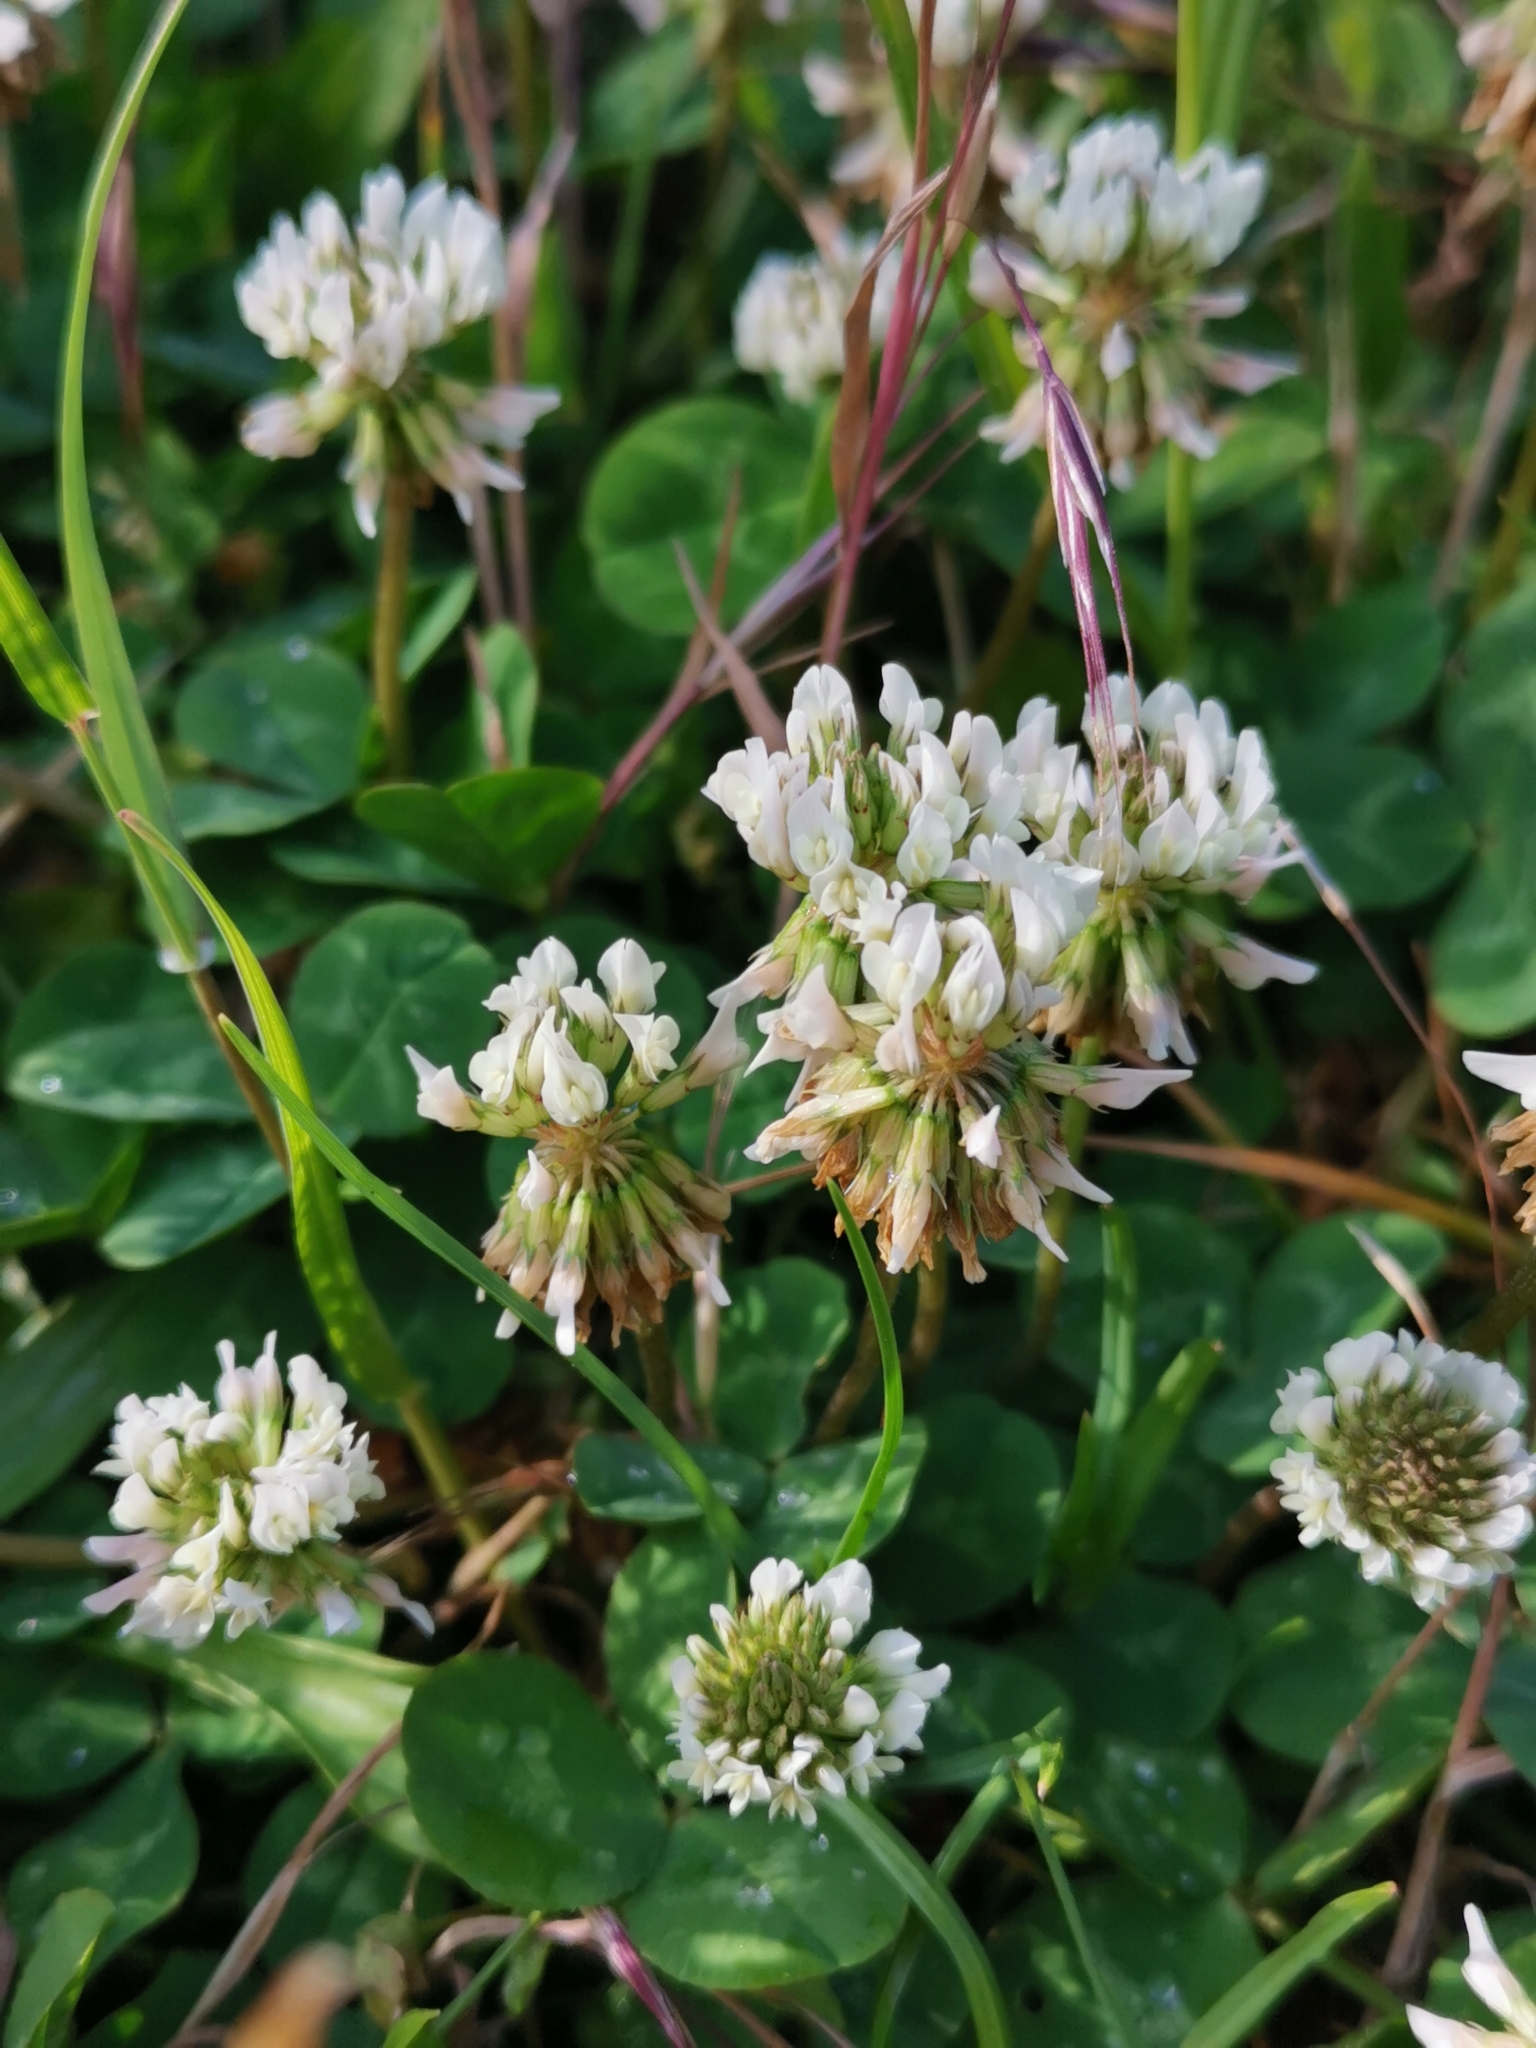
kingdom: Plantae
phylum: Tracheophyta
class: Magnoliopsida
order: Fabales
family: Fabaceae
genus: Trifolium
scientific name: Trifolium repens
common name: White clover
